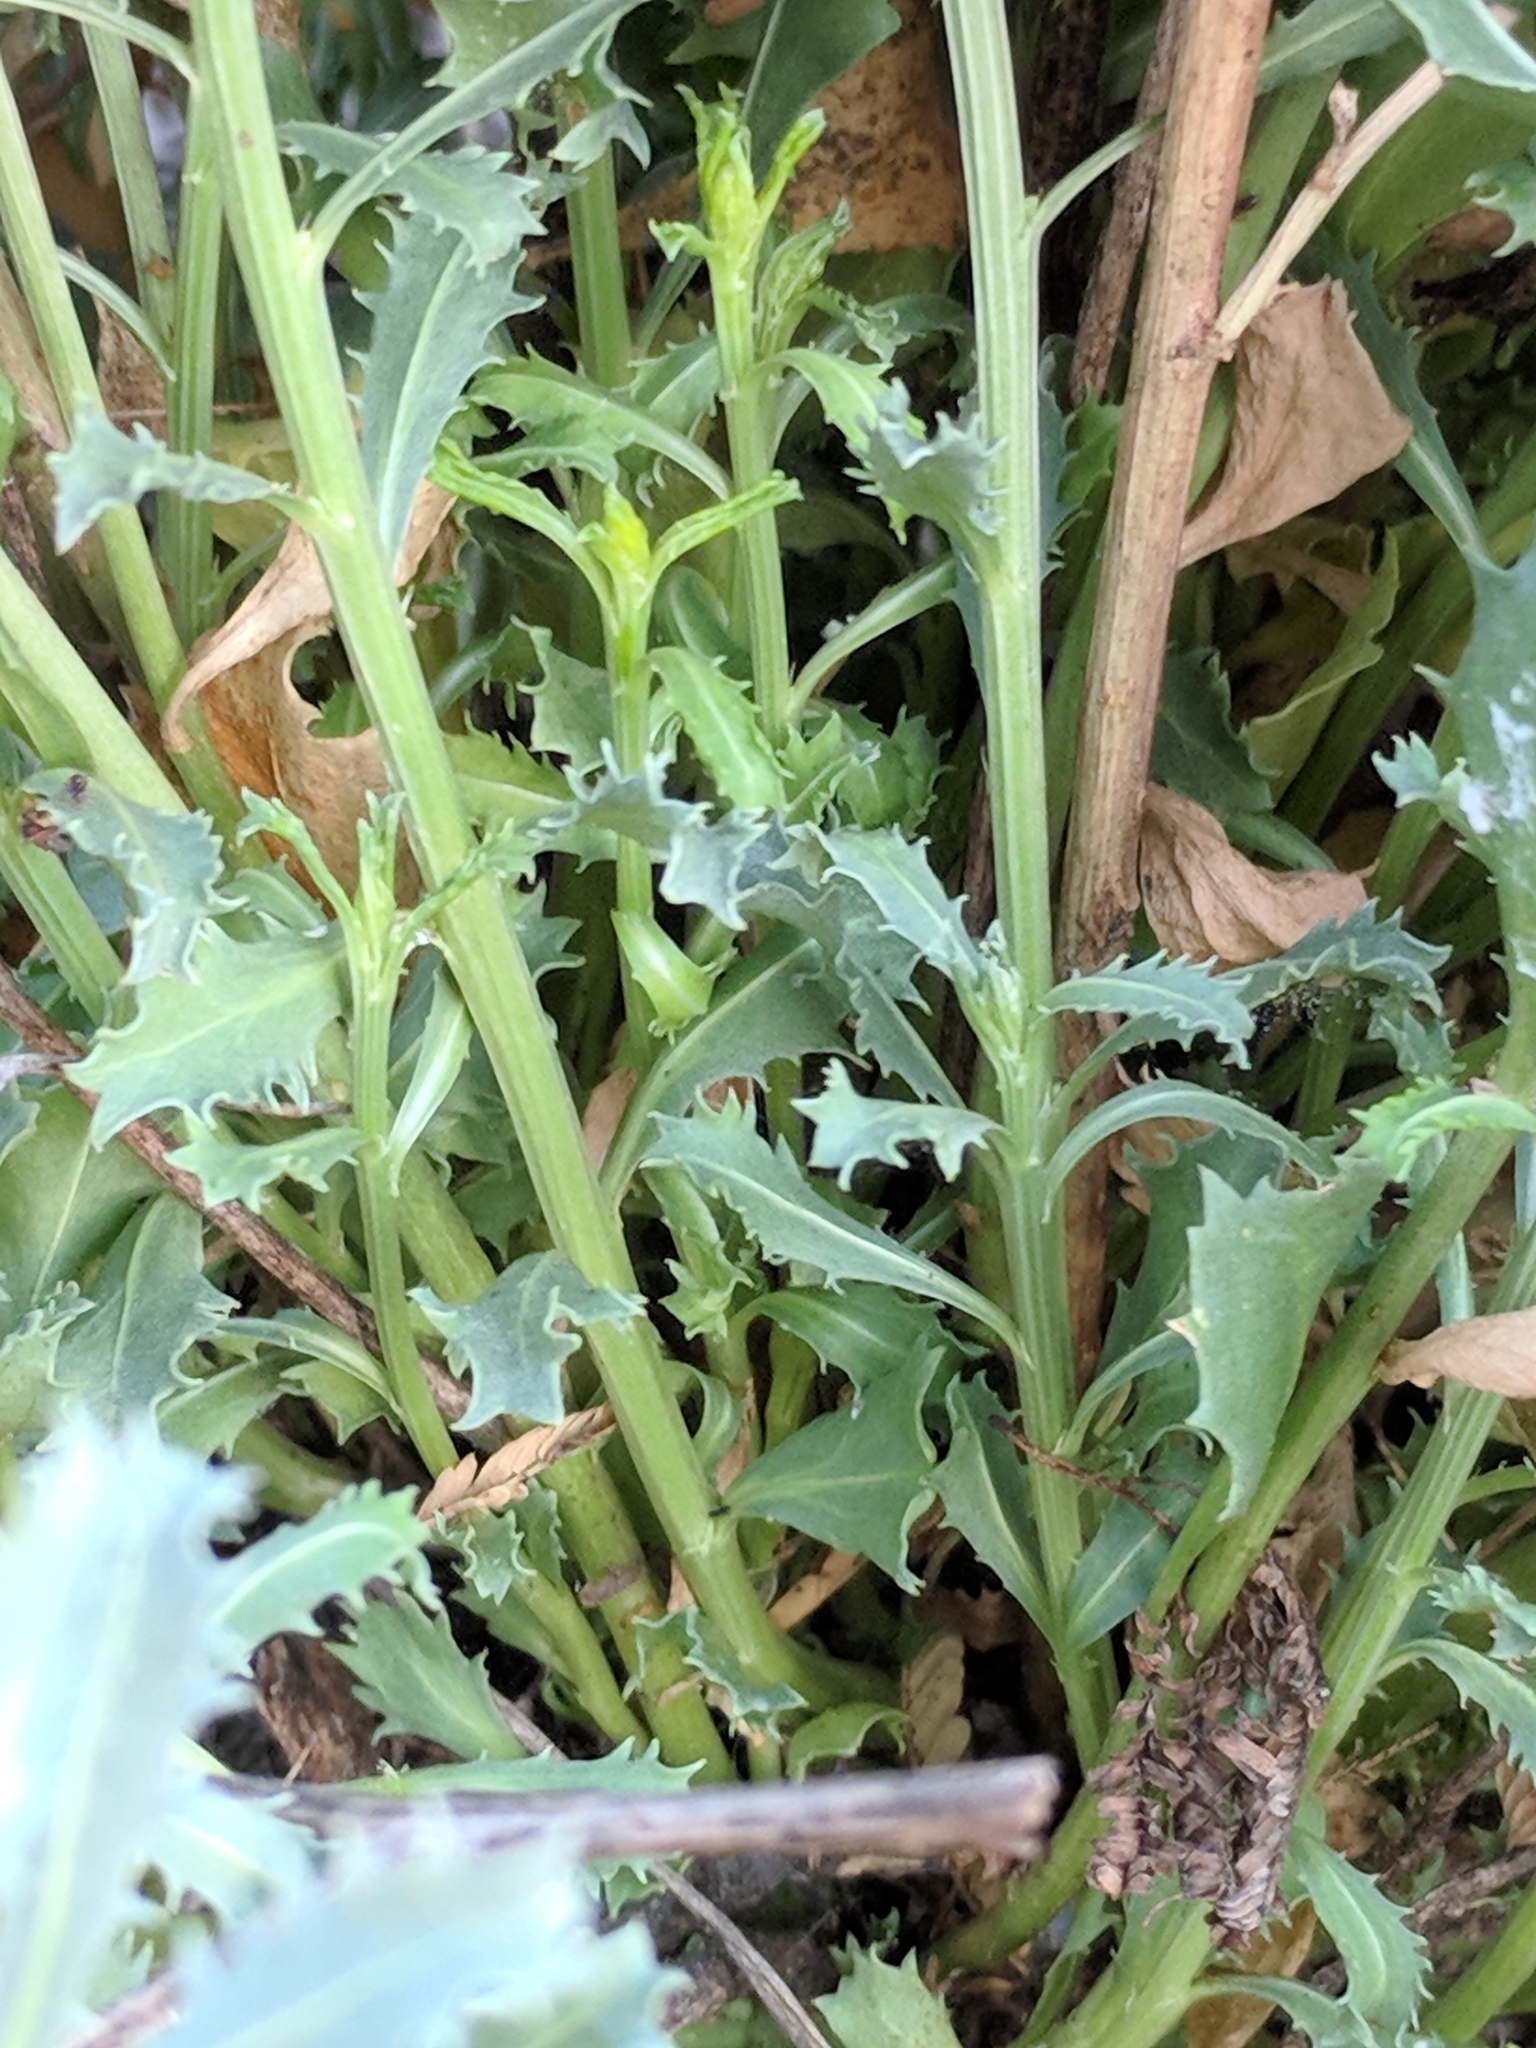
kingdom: Plantae
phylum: Tracheophyta
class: Magnoliopsida
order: Malpighiales
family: Euphorbiaceae
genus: Stillingia
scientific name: Stillingia treculiana
